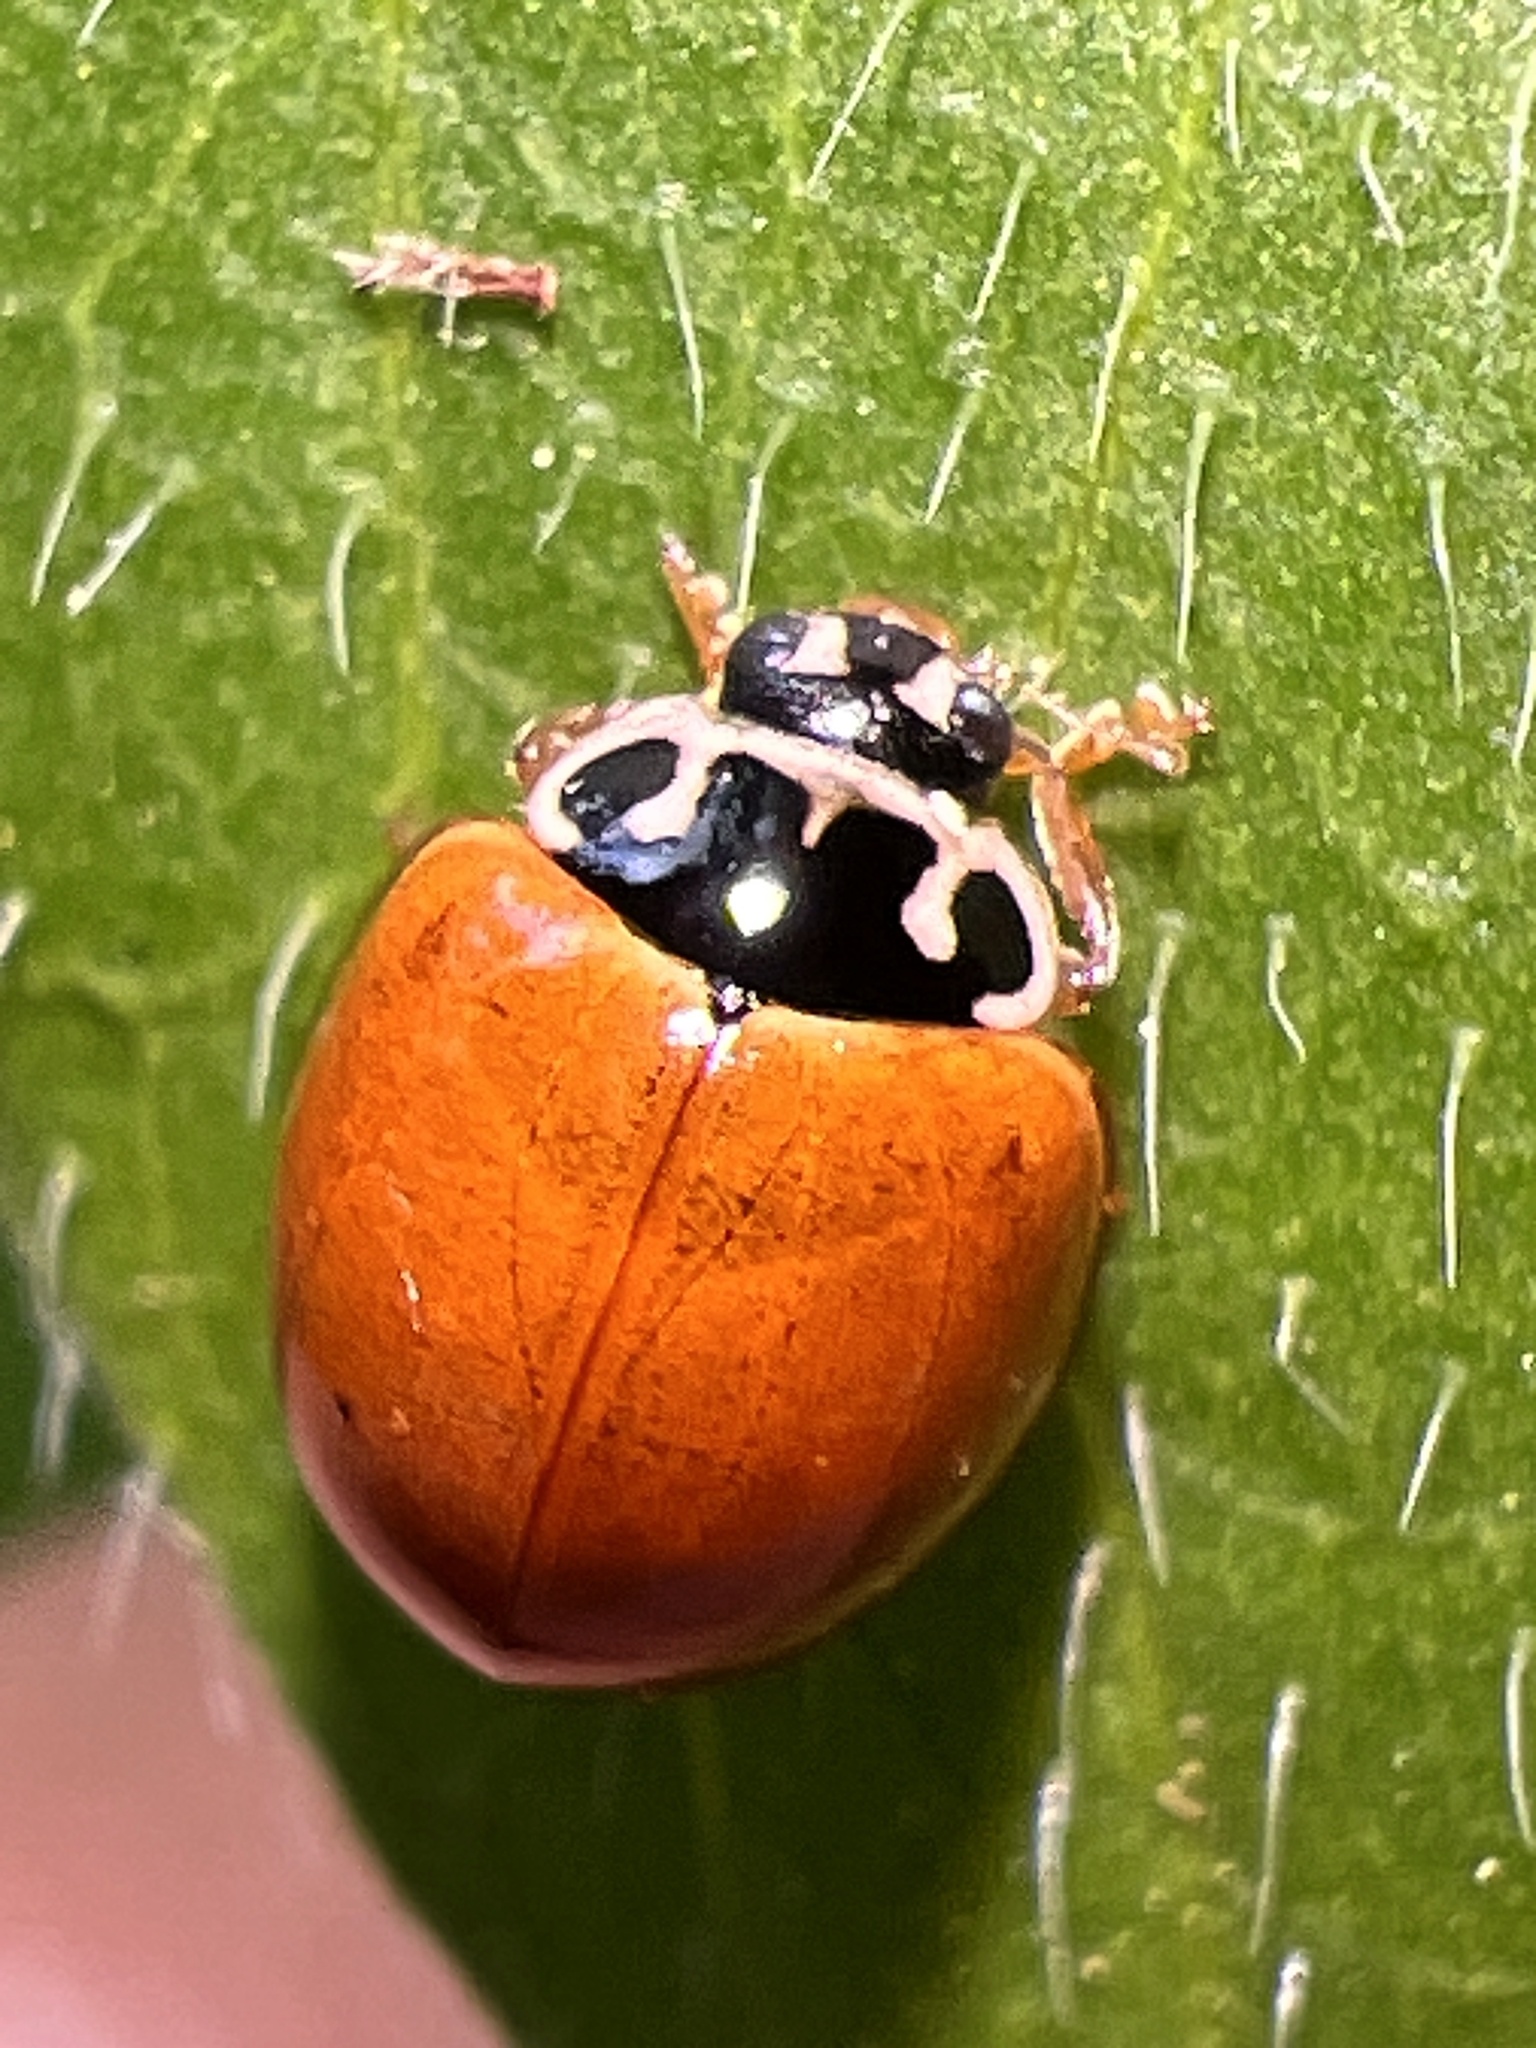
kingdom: Animalia
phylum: Arthropoda
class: Insecta
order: Coleoptera
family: Coccinellidae
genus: Cycloneda
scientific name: Cycloneda munda
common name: Polished lady beetle
